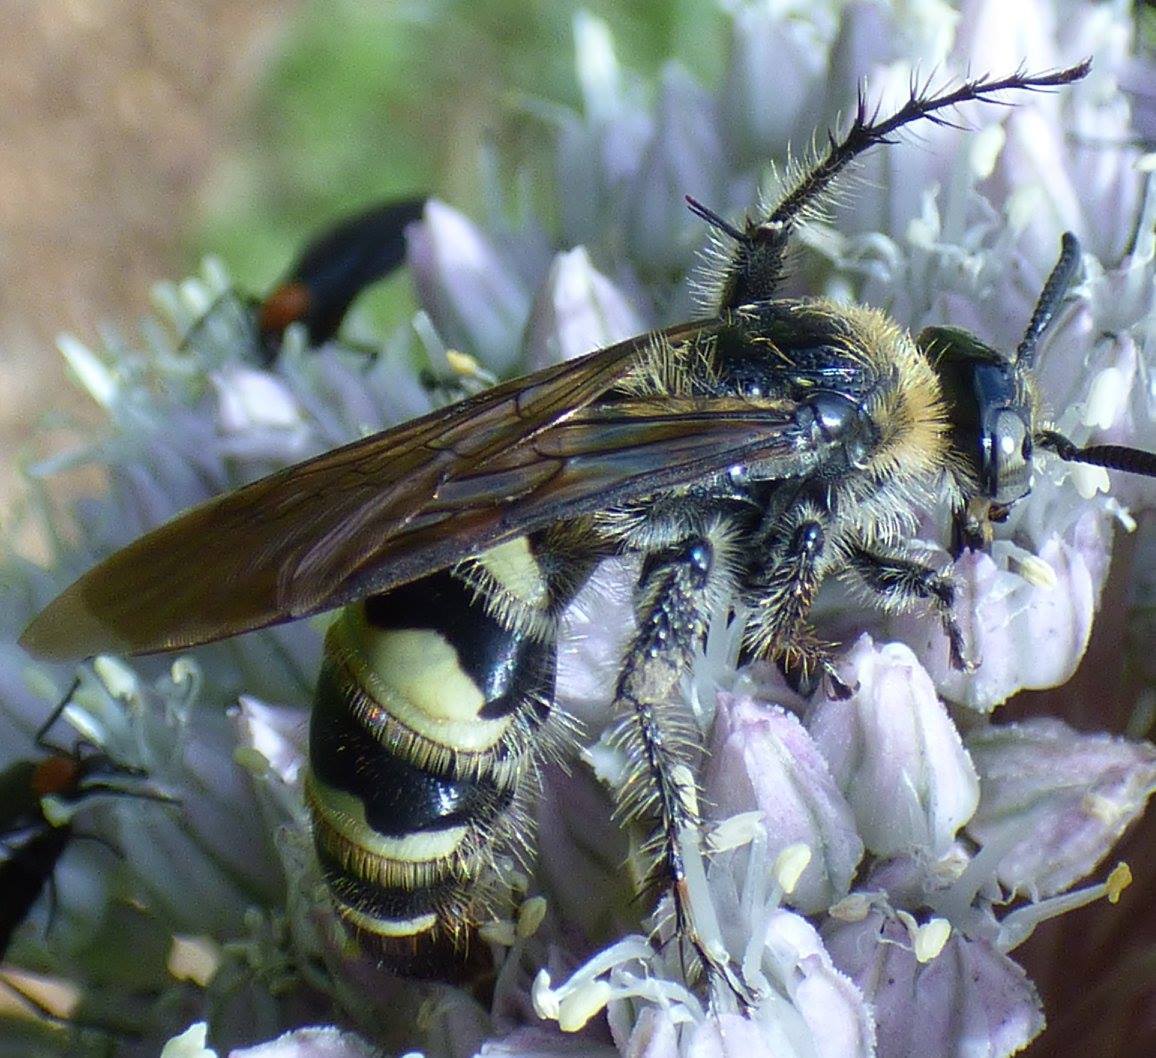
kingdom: Animalia
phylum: Arthropoda
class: Insecta
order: Hymenoptera
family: Scoliidae
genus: Dielis
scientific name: Dielis
